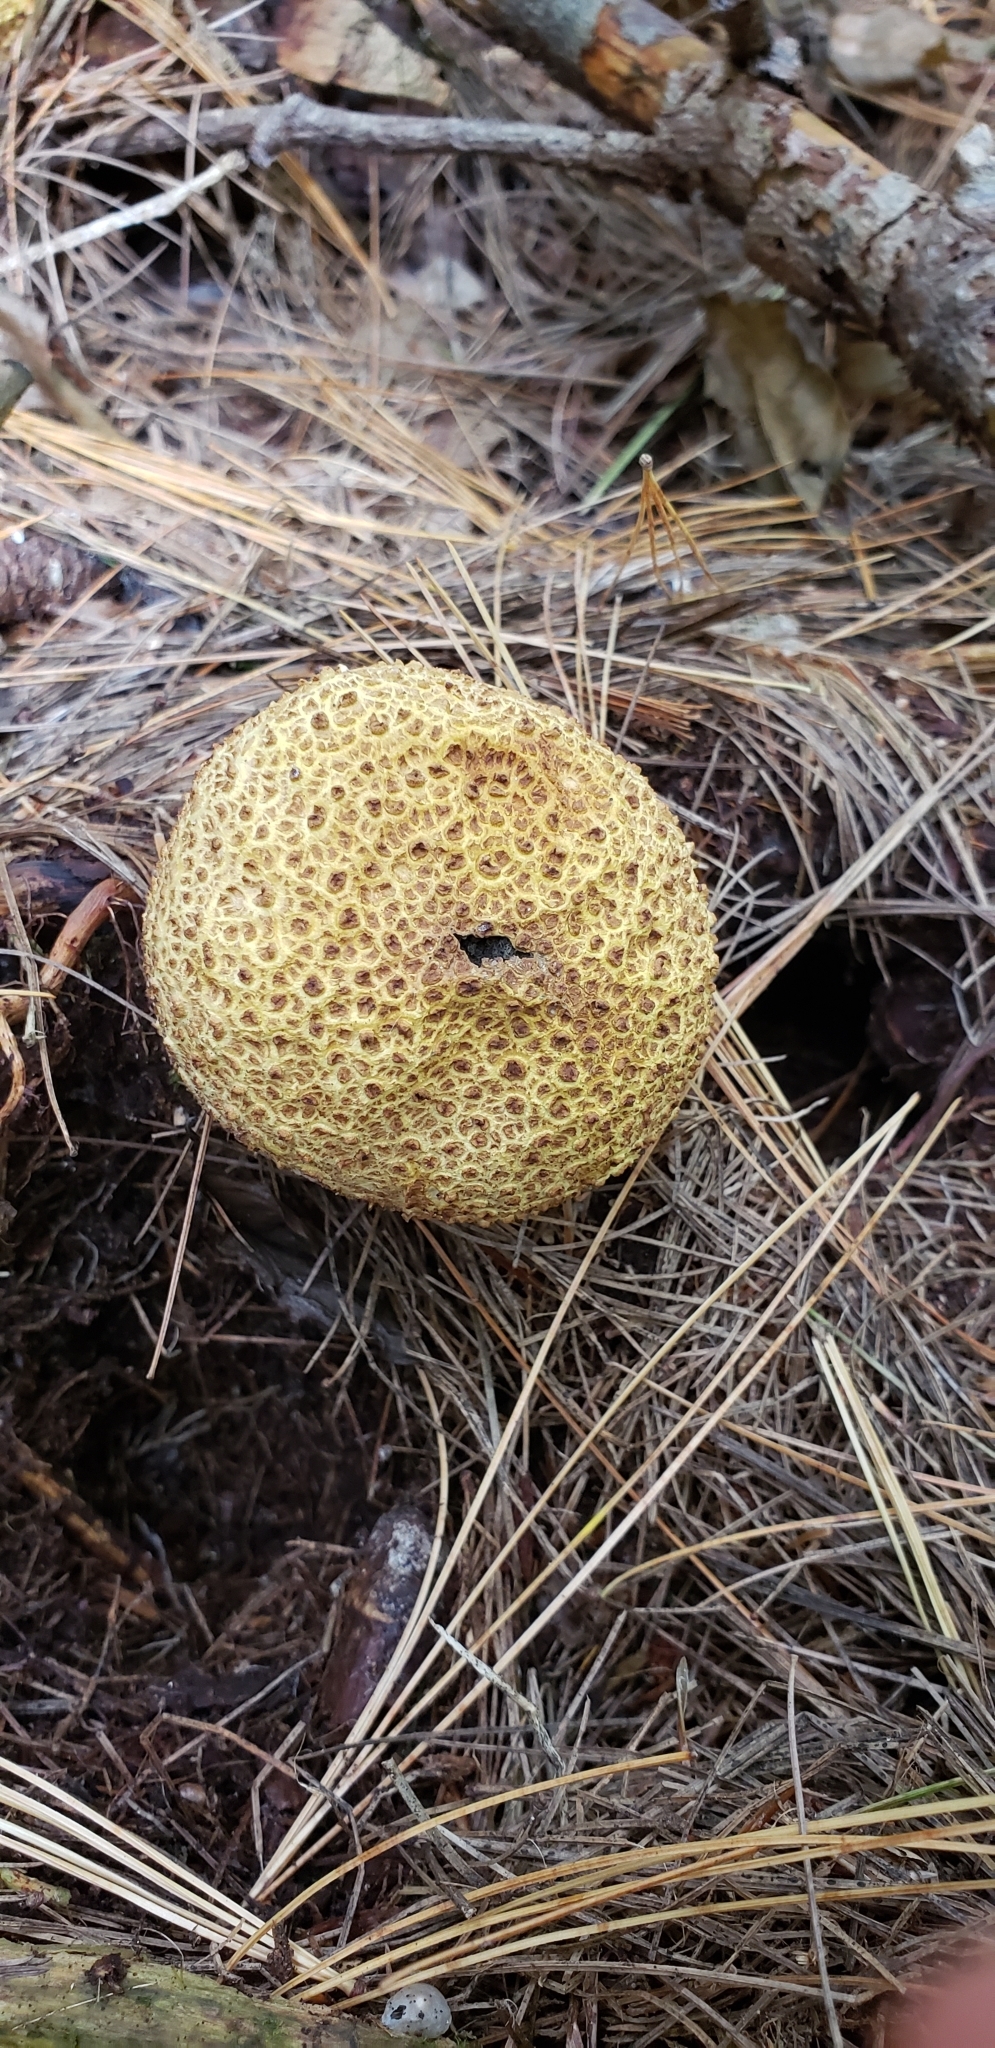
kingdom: Fungi
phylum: Basidiomycota
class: Agaricomycetes
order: Boletales
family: Sclerodermataceae
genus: Scleroderma
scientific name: Scleroderma citrinum
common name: Common earthball
